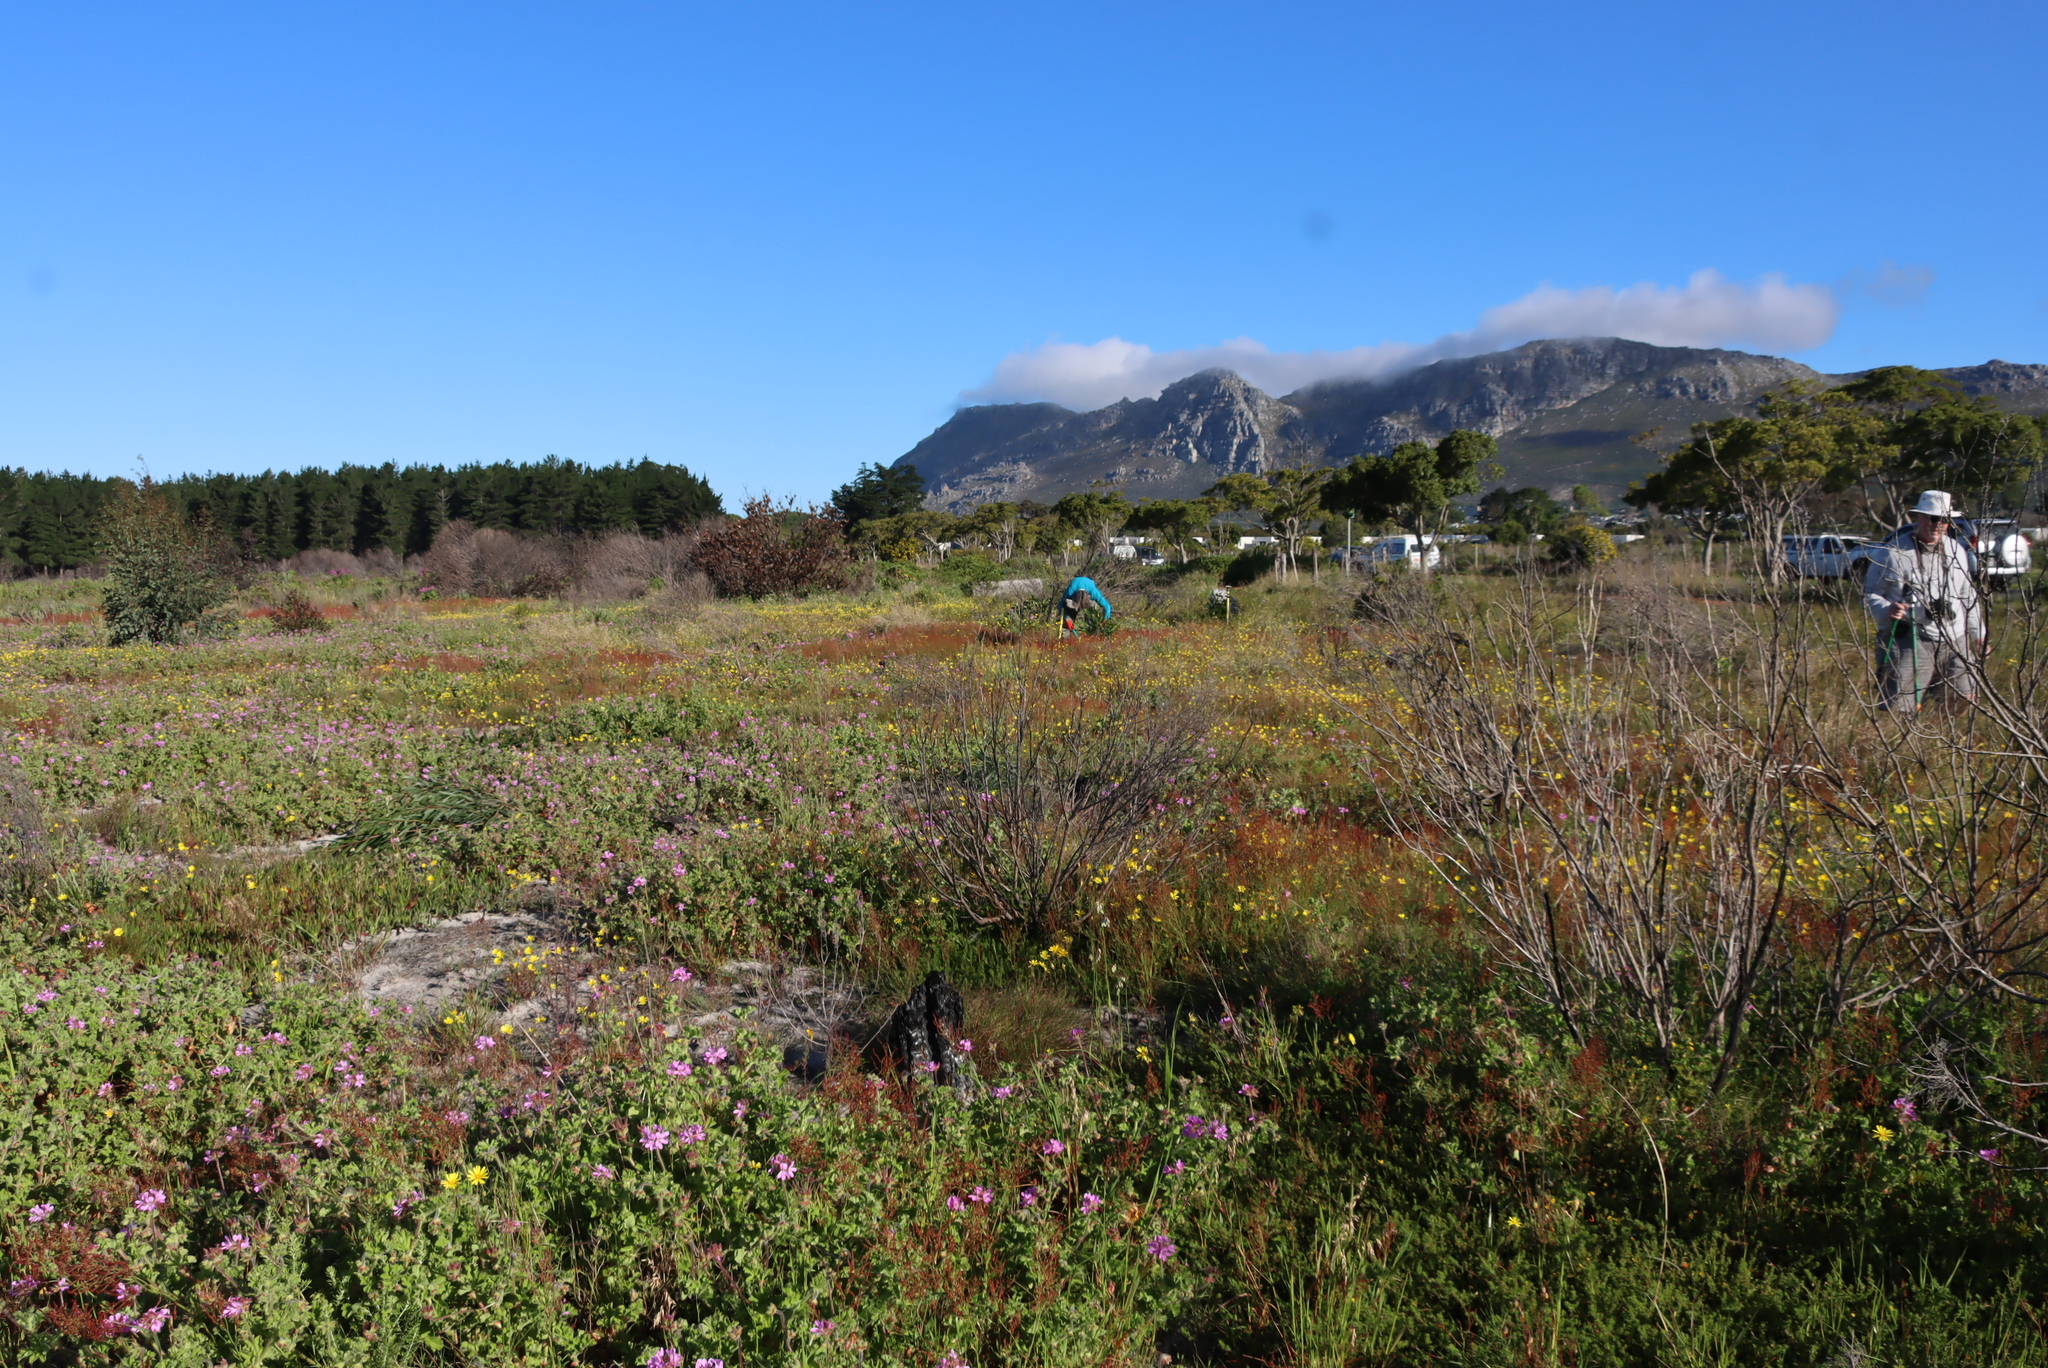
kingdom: Plantae
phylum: Tracheophyta
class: Magnoliopsida
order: Geraniales
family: Geraniaceae
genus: Pelargonium
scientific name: Pelargonium capitatum
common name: Rose scented geranium
